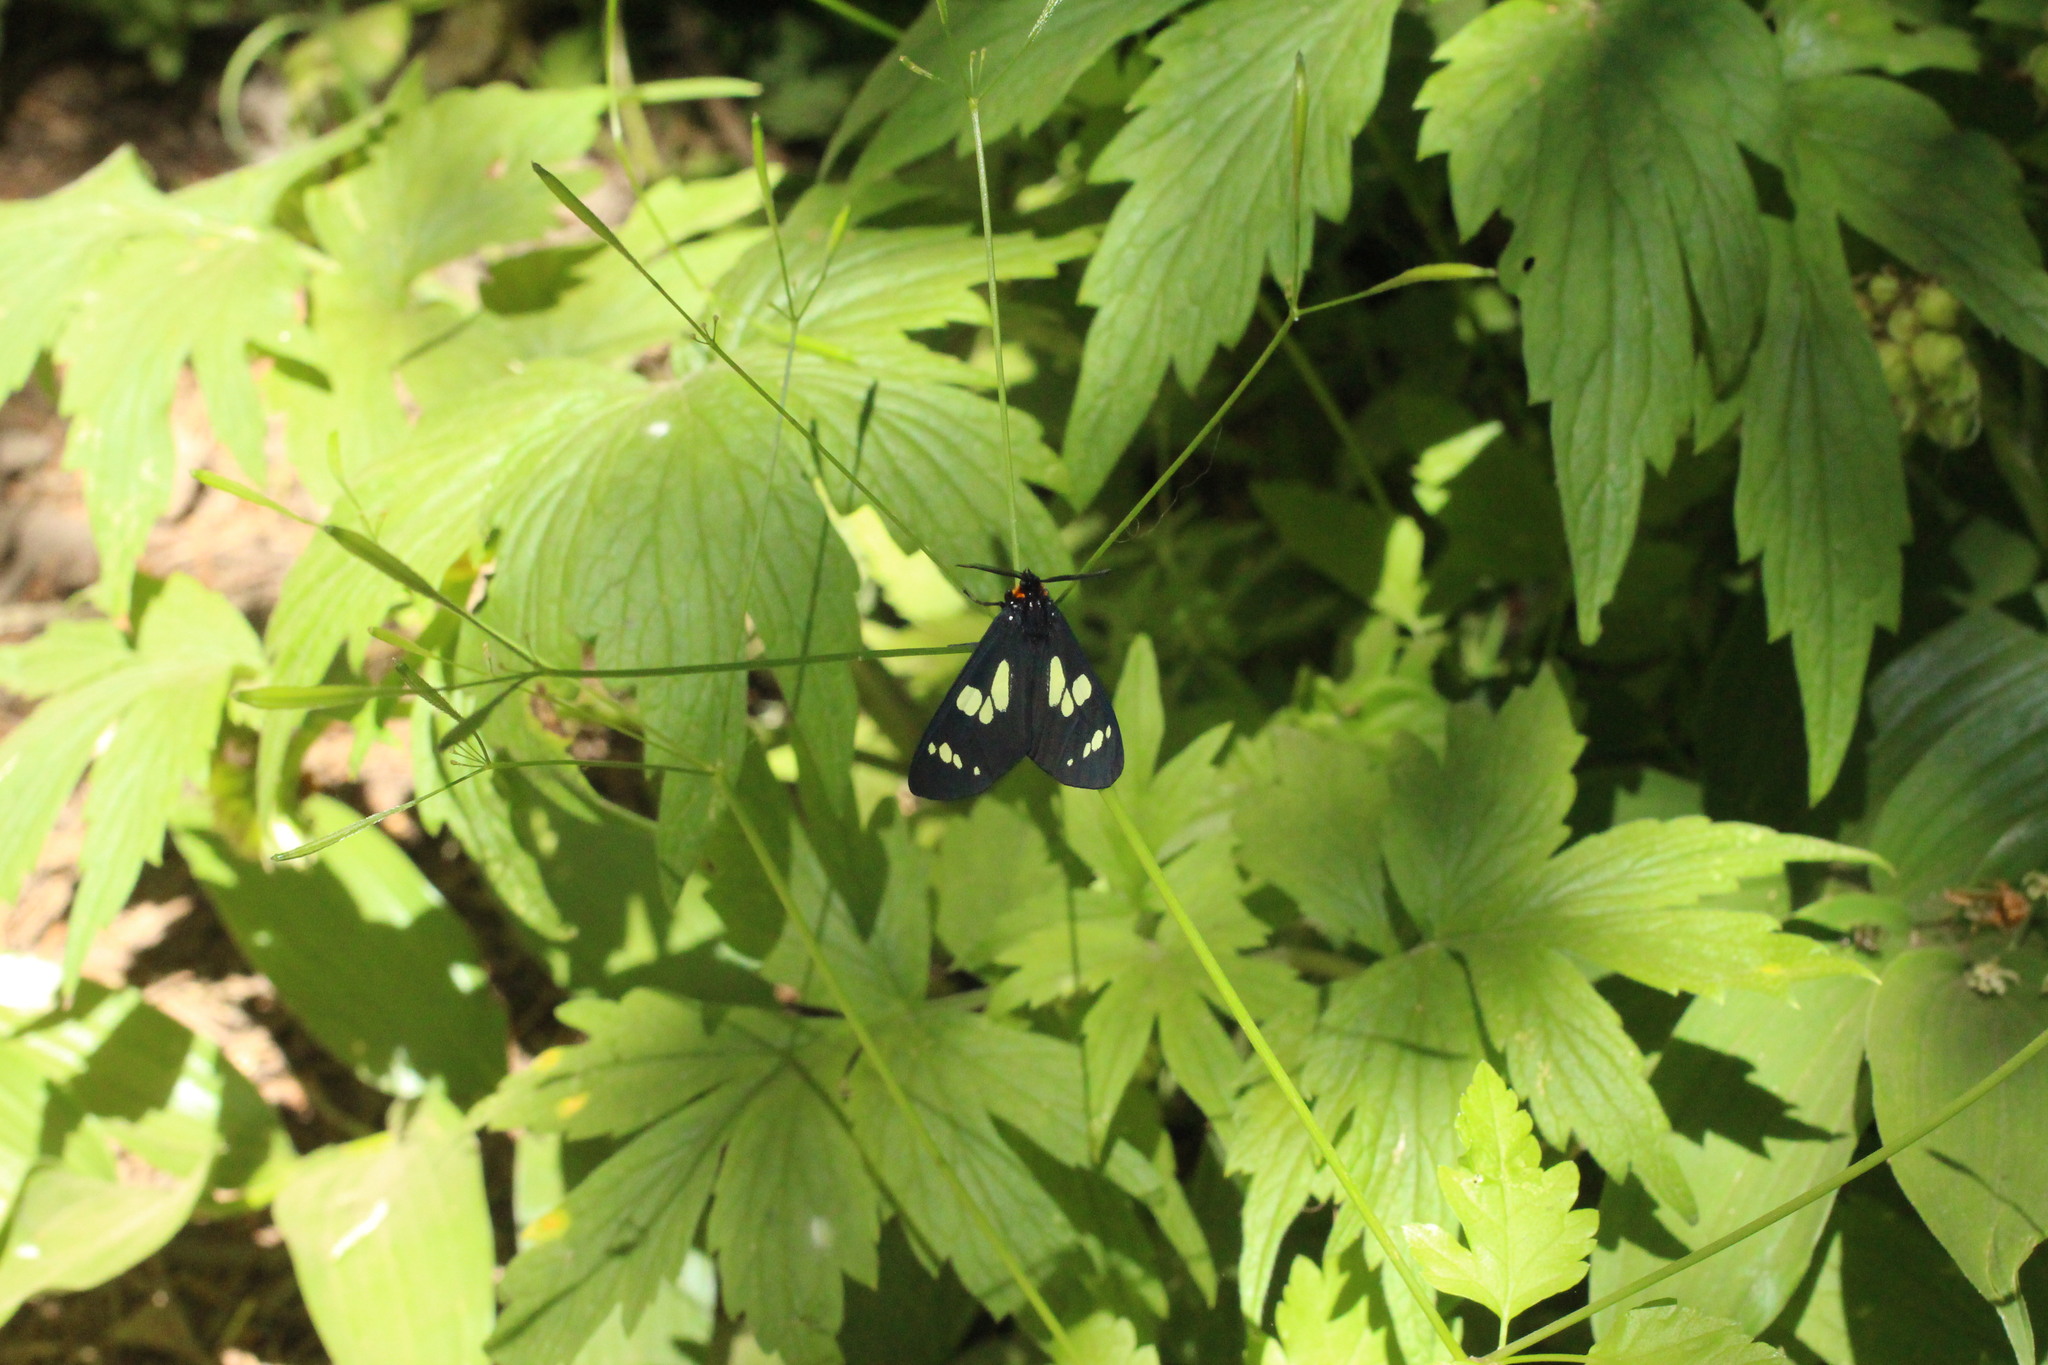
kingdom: Animalia
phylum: Arthropoda
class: Insecta
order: Lepidoptera
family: Erebidae
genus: Gnophaela
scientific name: Gnophaela latipennis
